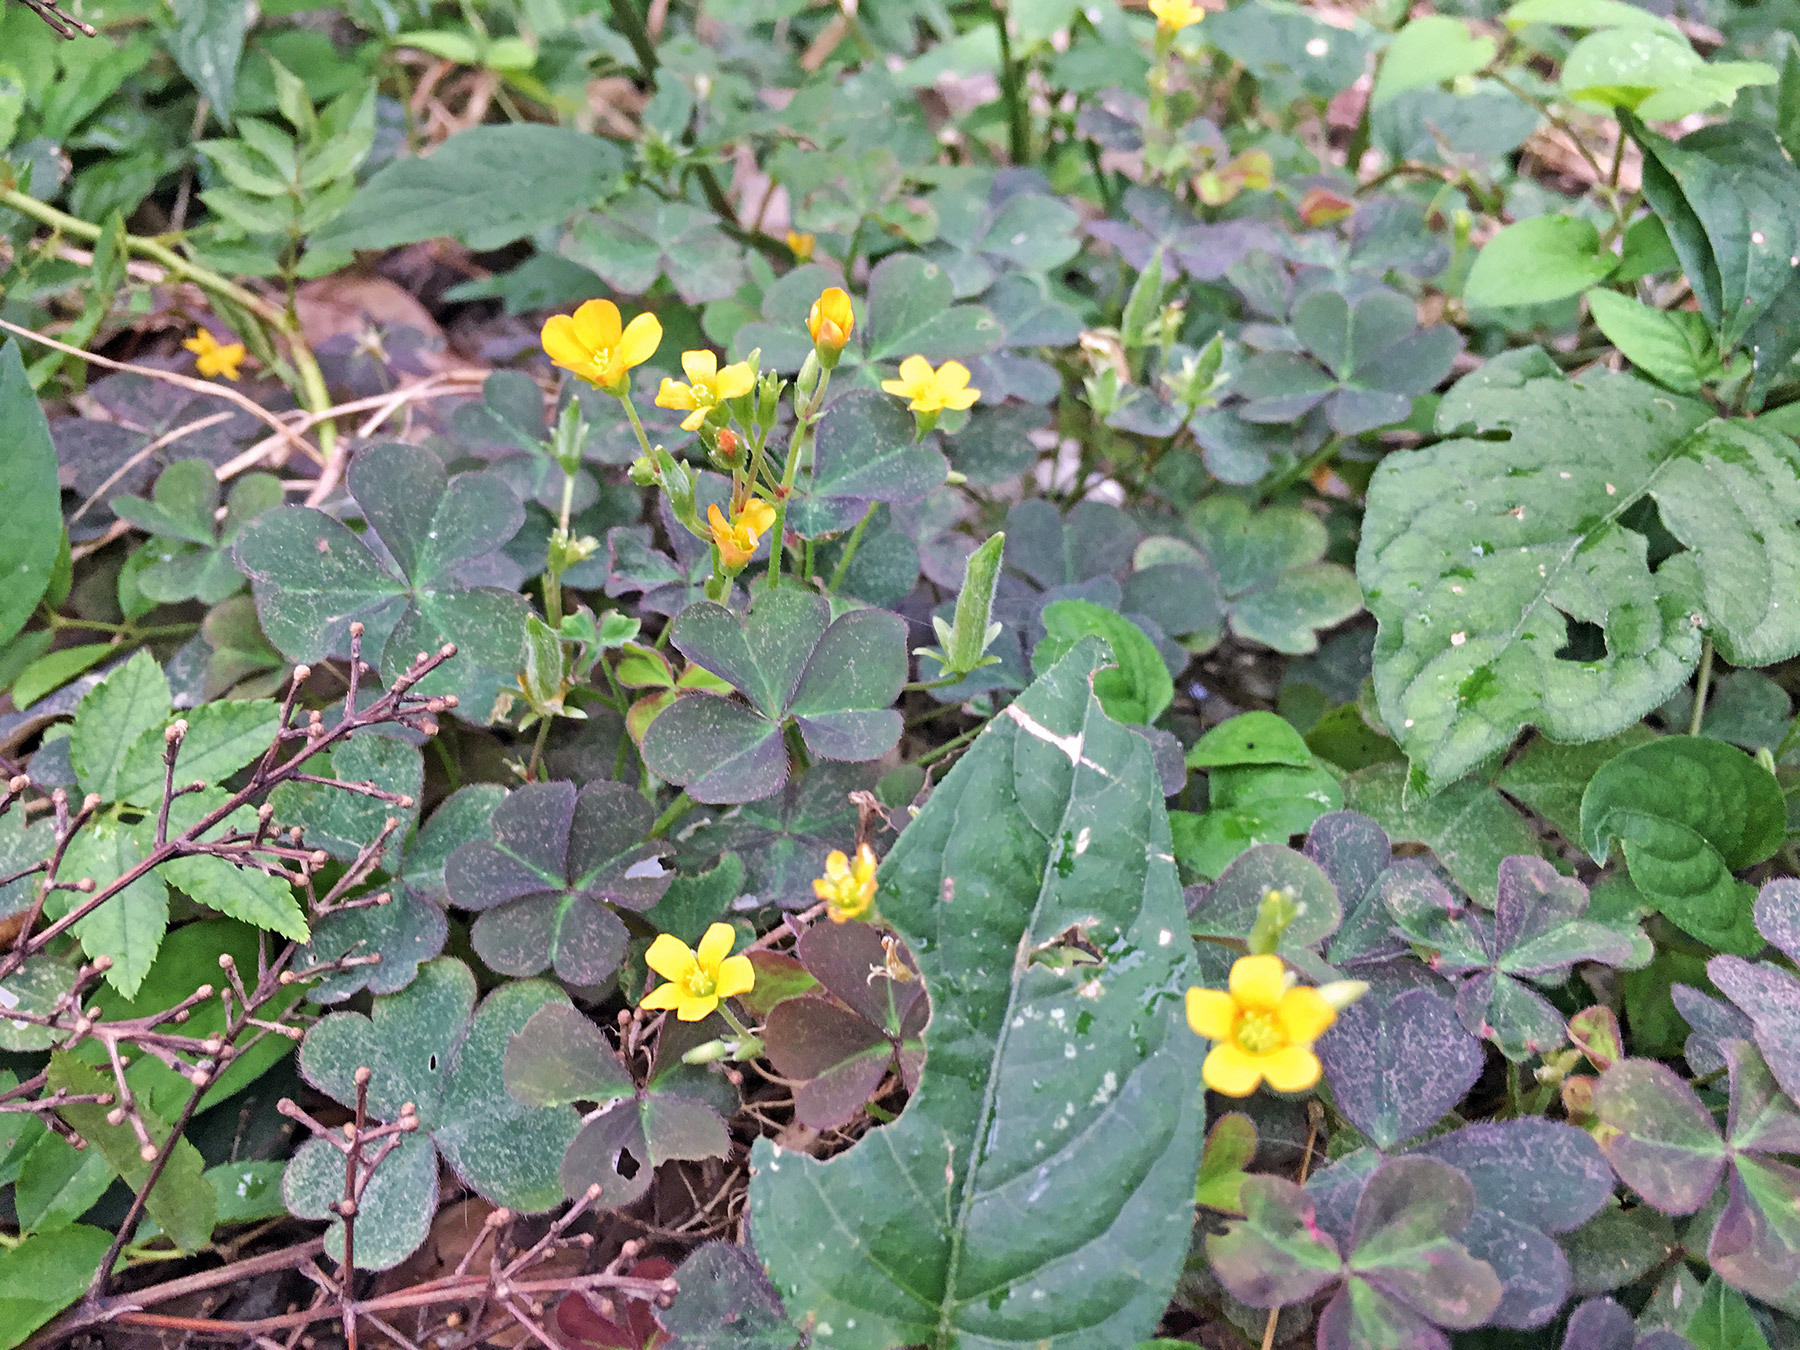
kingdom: Plantae
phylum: Tracheophyta
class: Magnoliopsida
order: Oxalidales
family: Oxalidaceae
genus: Oxalis
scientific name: Oxalis corniculata
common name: Procumbent yellow-sorrel
